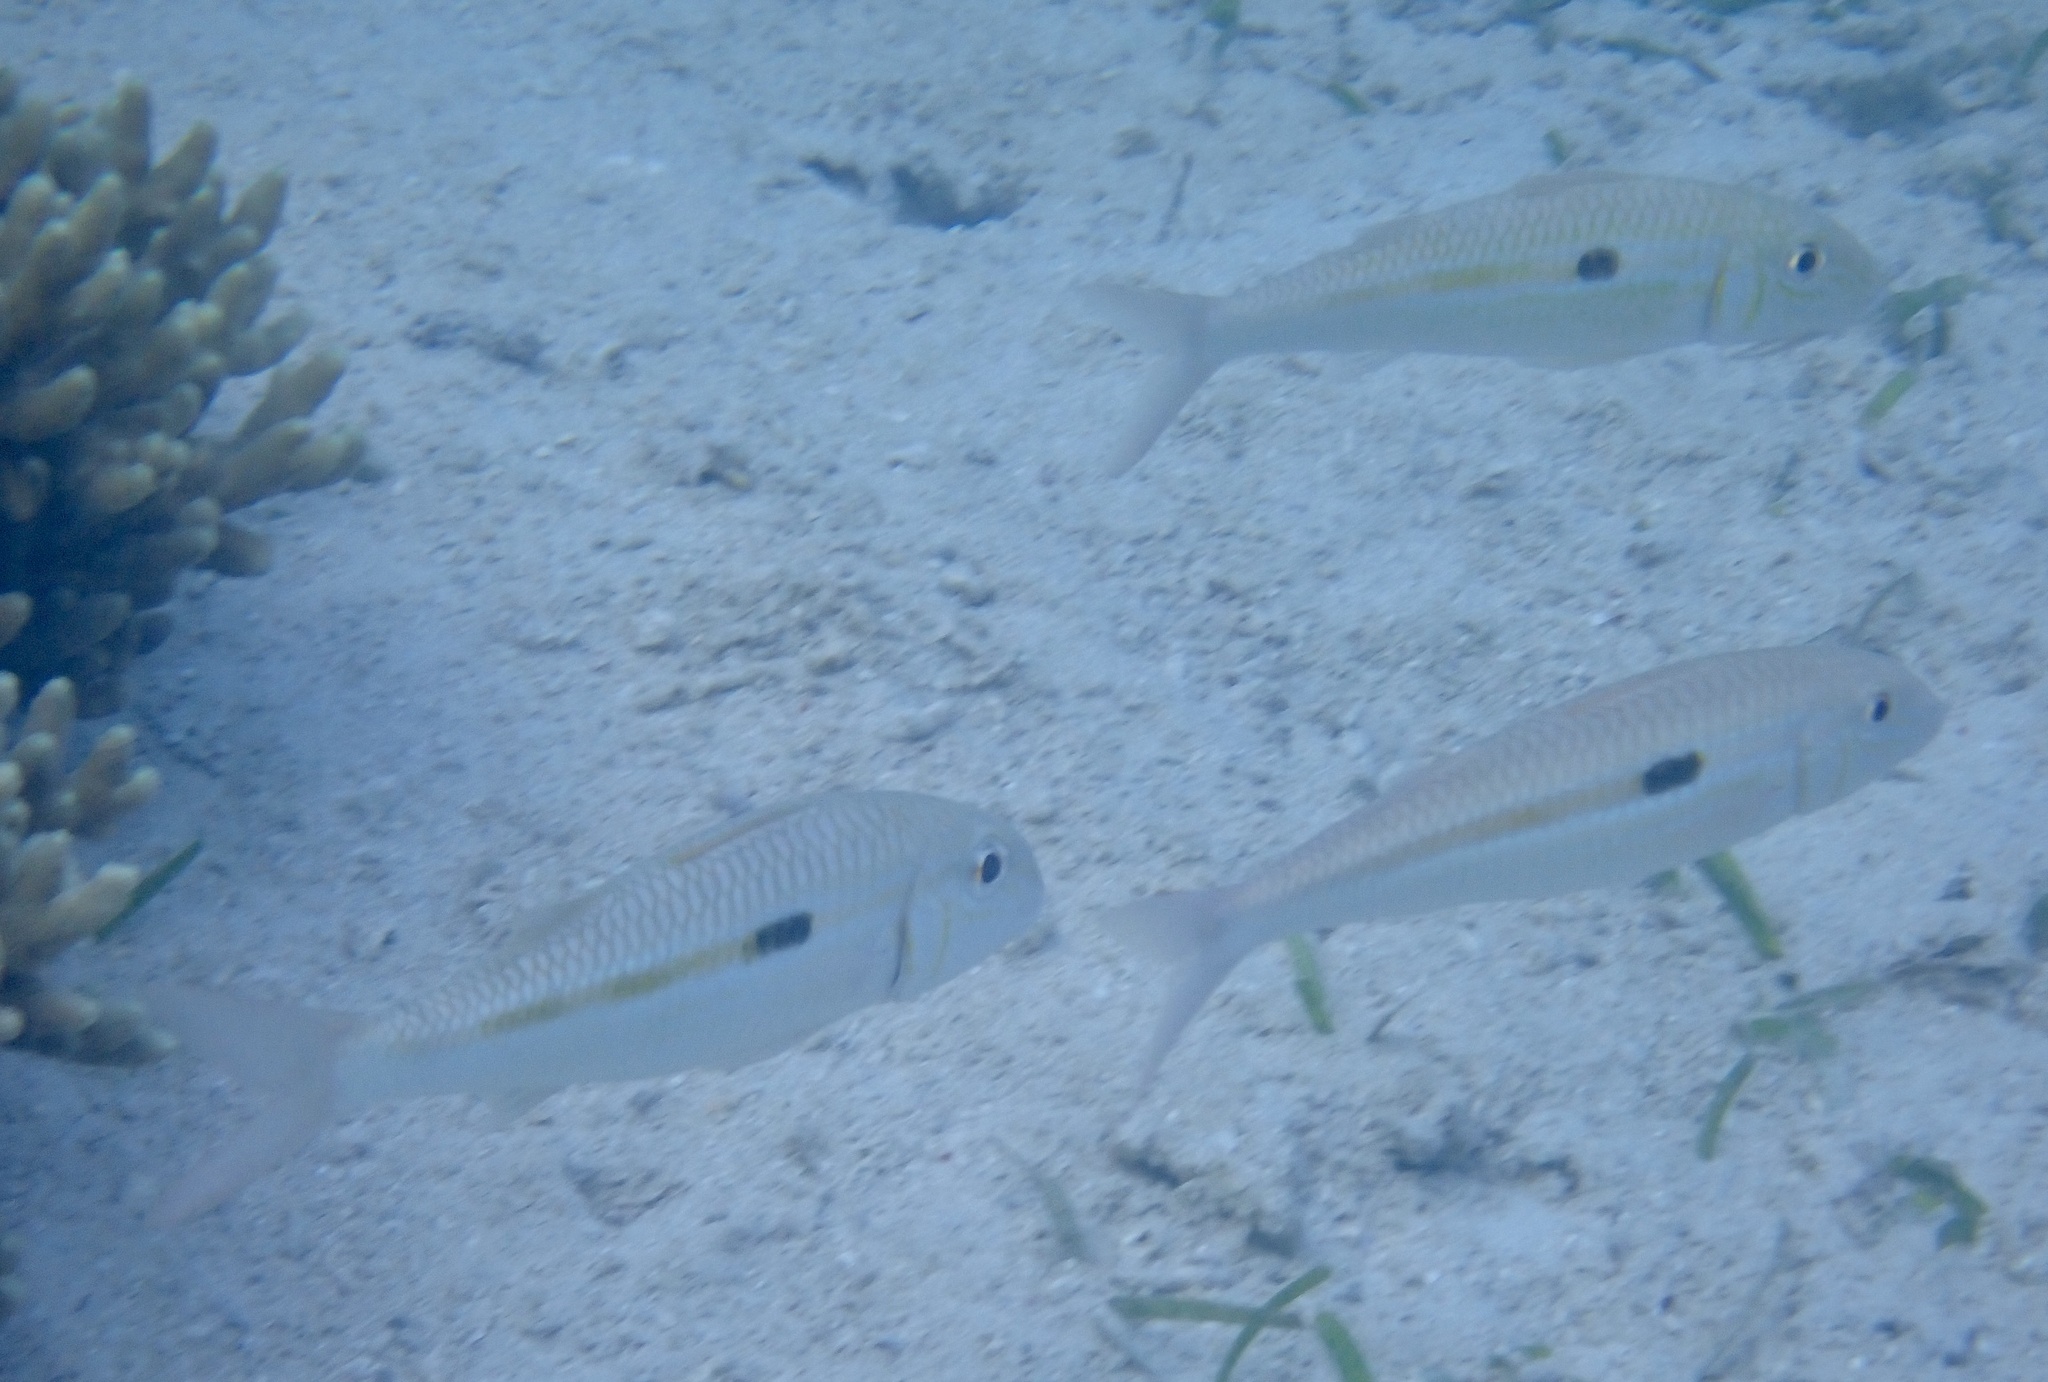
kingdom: Animalia
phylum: Chordata
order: Perciformes
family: Mullidae
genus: Mulloidichthys
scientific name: Mulloidichthys flavolineatus
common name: Yellowstripe goatfish
